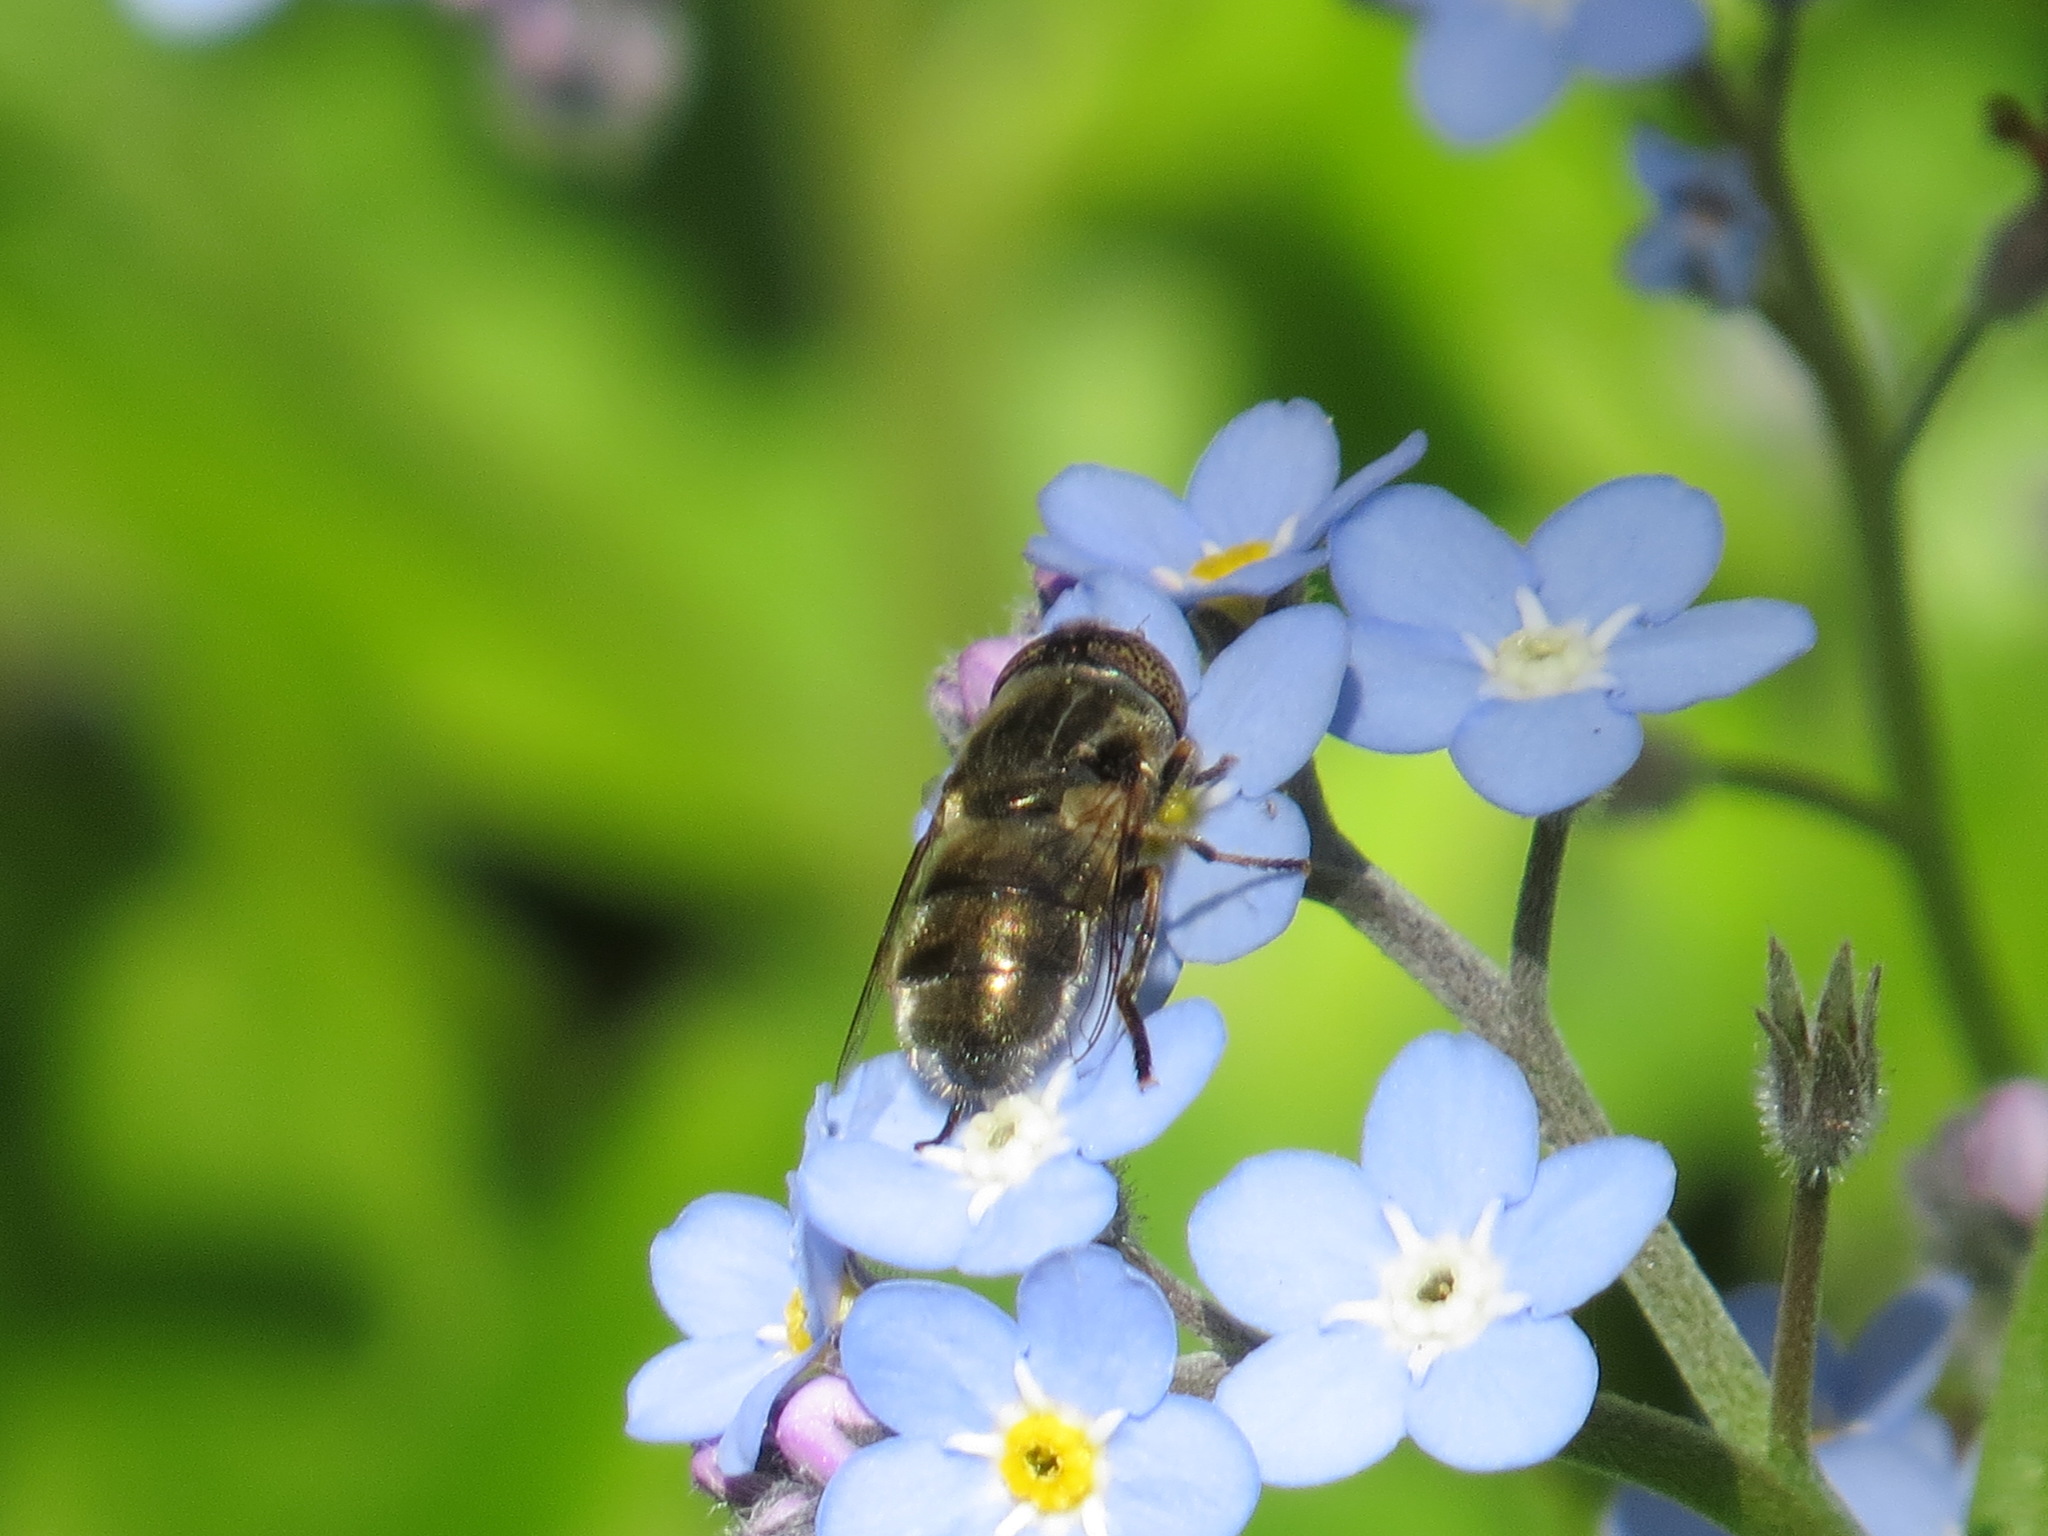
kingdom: Animalia
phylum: Arthropoda
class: Insecta
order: Diptera
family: Syrphidae
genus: Eristalinus
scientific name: Eristalinus aeneus
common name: Syrphid fly
